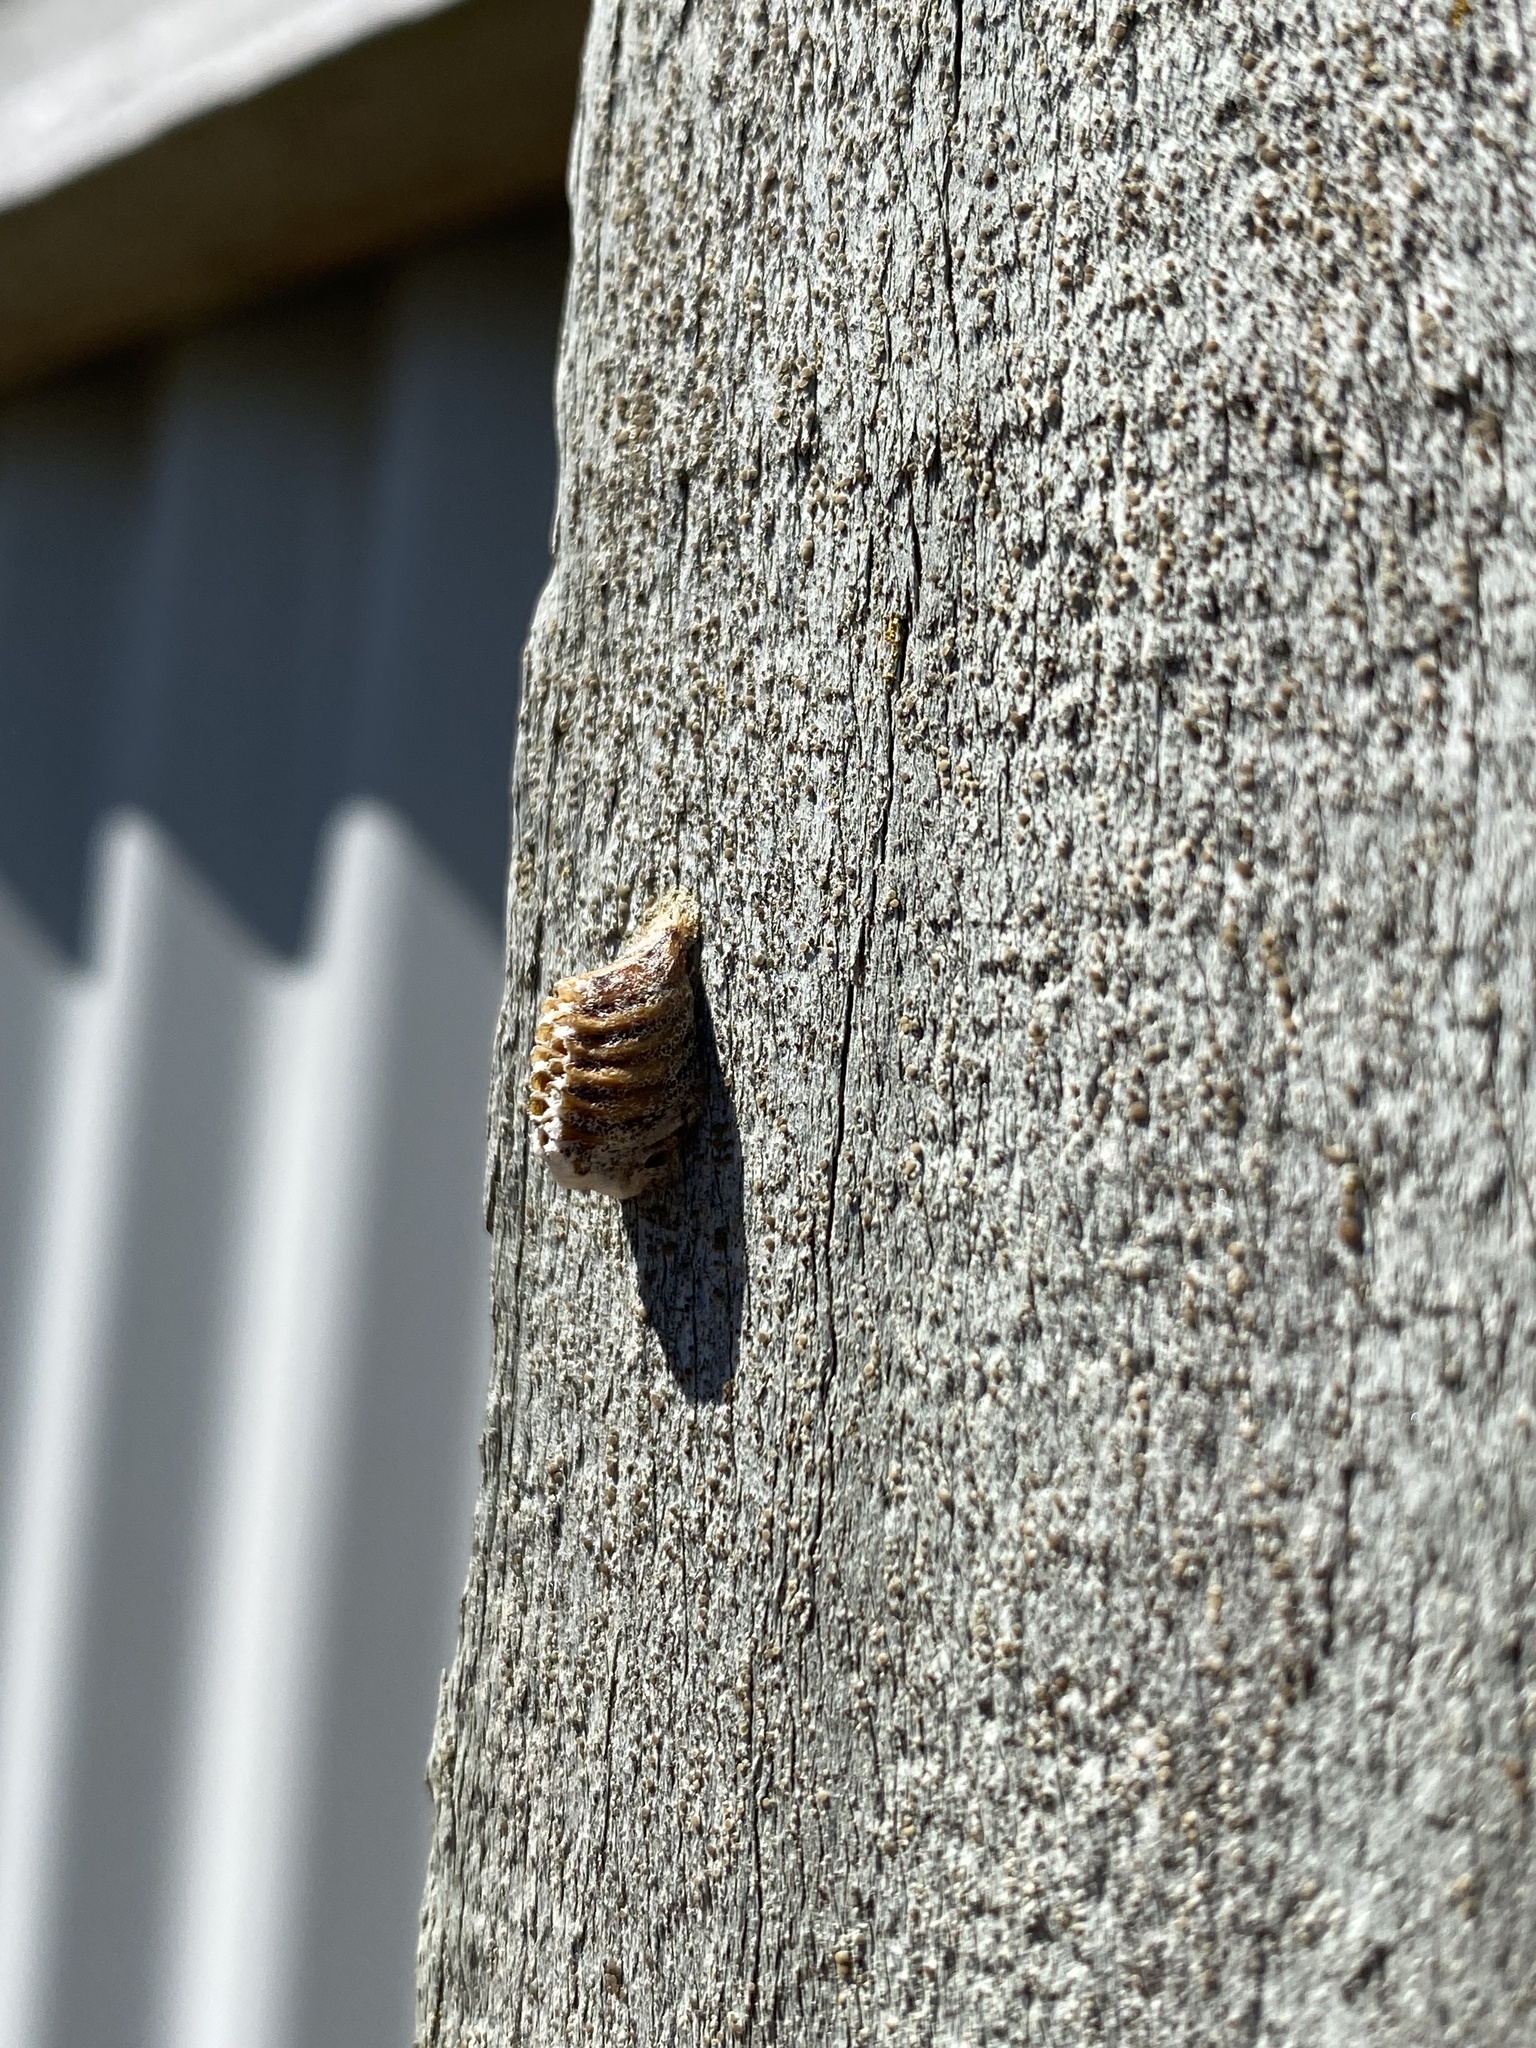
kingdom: Animalia
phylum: Arthropoda
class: Insecta
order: Mantodea
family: Mantidae
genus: Orthodera
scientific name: Orthodera novaezealandiae
